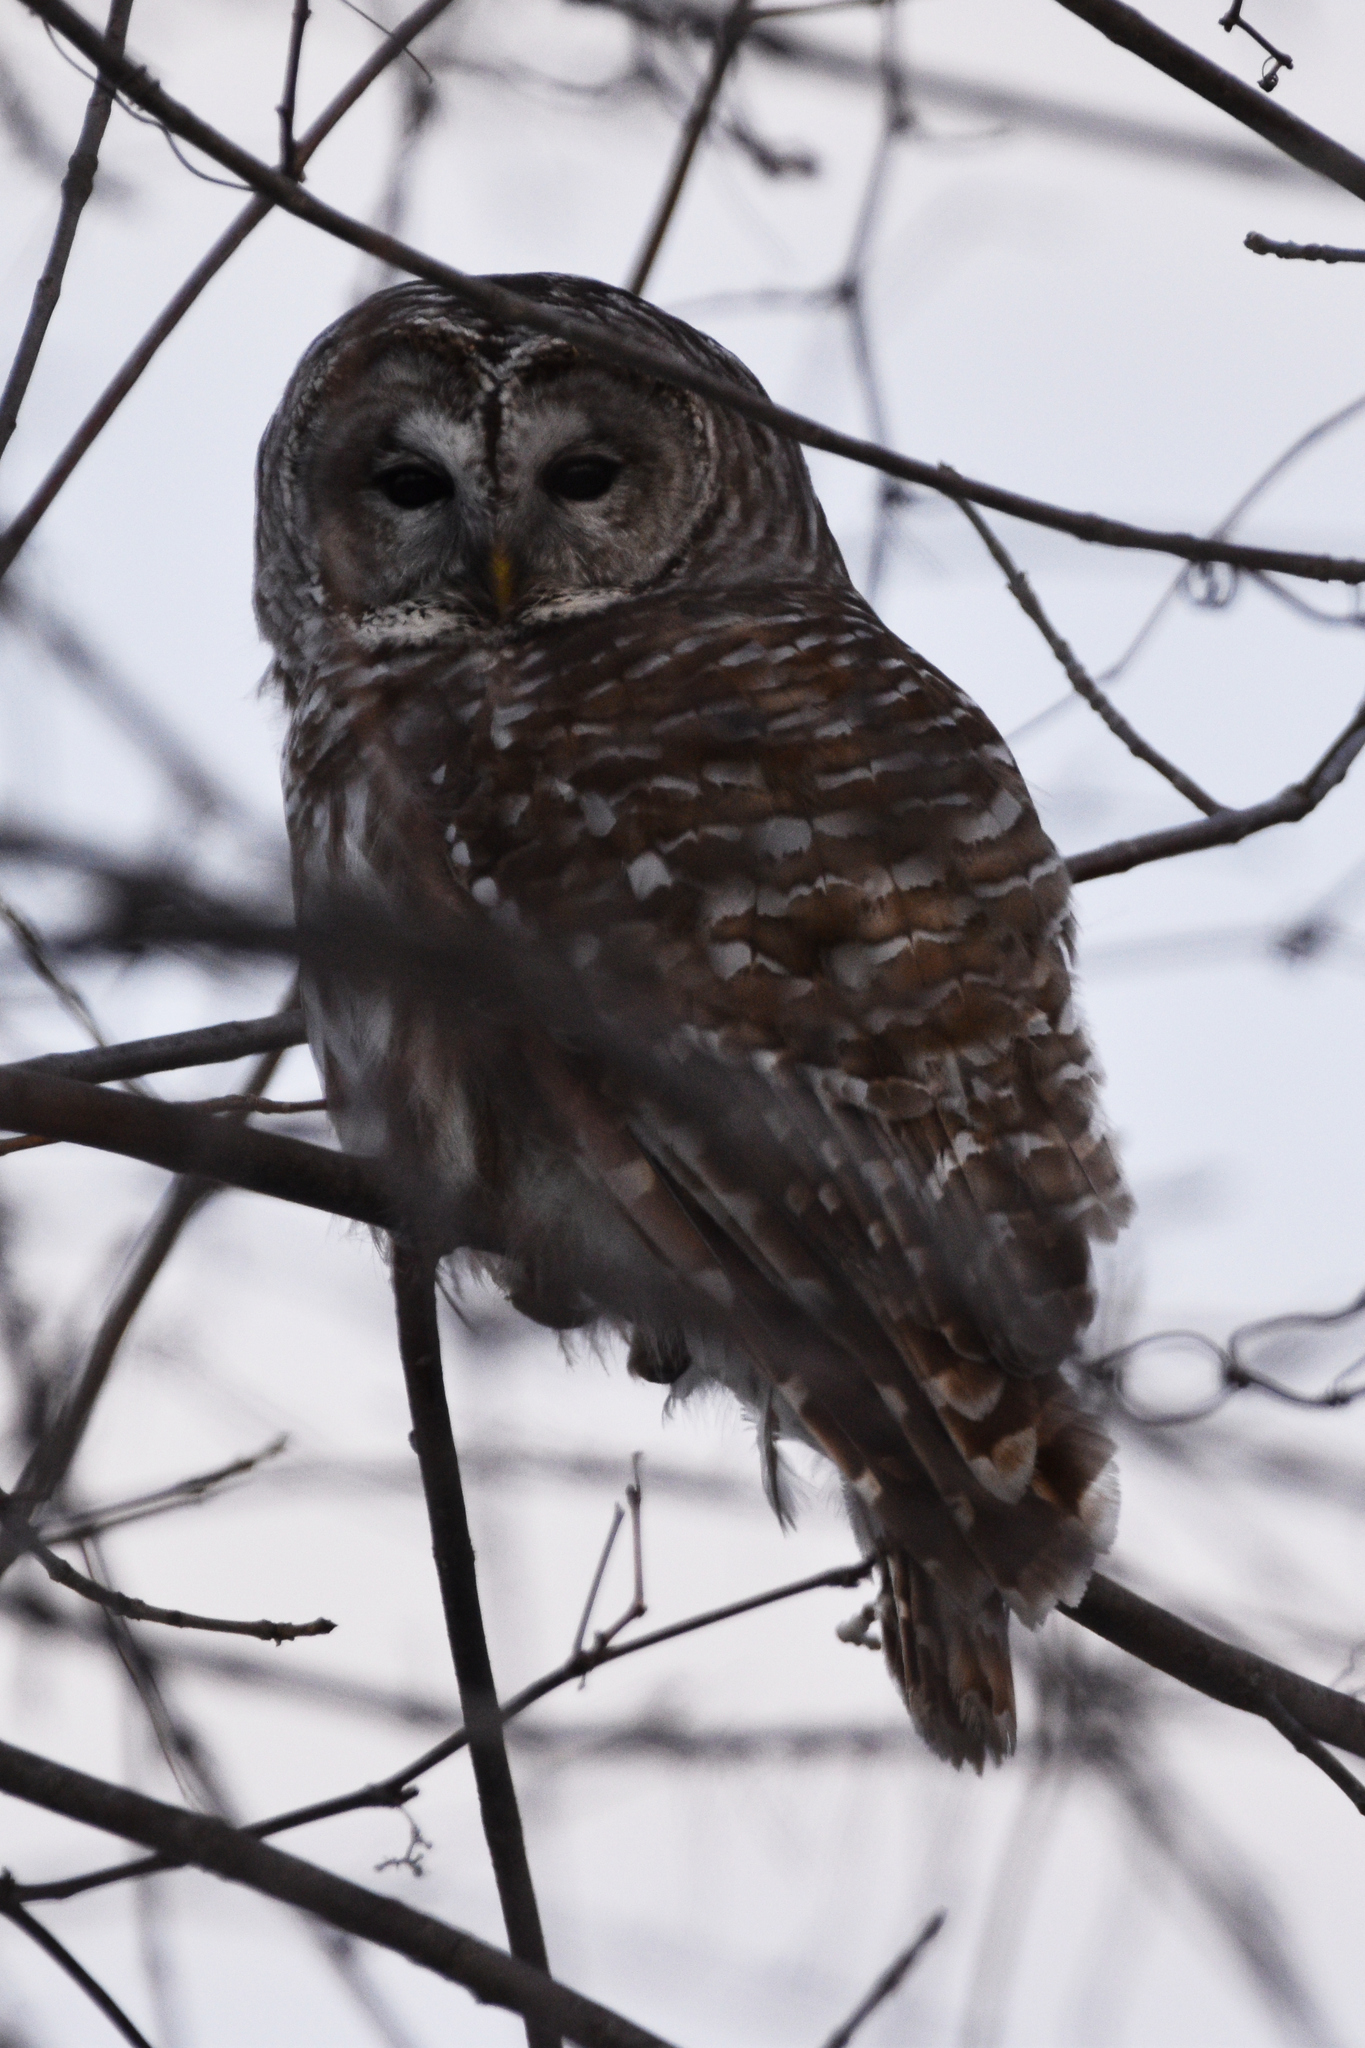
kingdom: Animalia
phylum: Chordata
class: Aves
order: Strigiformes
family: Strigidae
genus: Strix
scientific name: Strix varia
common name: Barred owl
